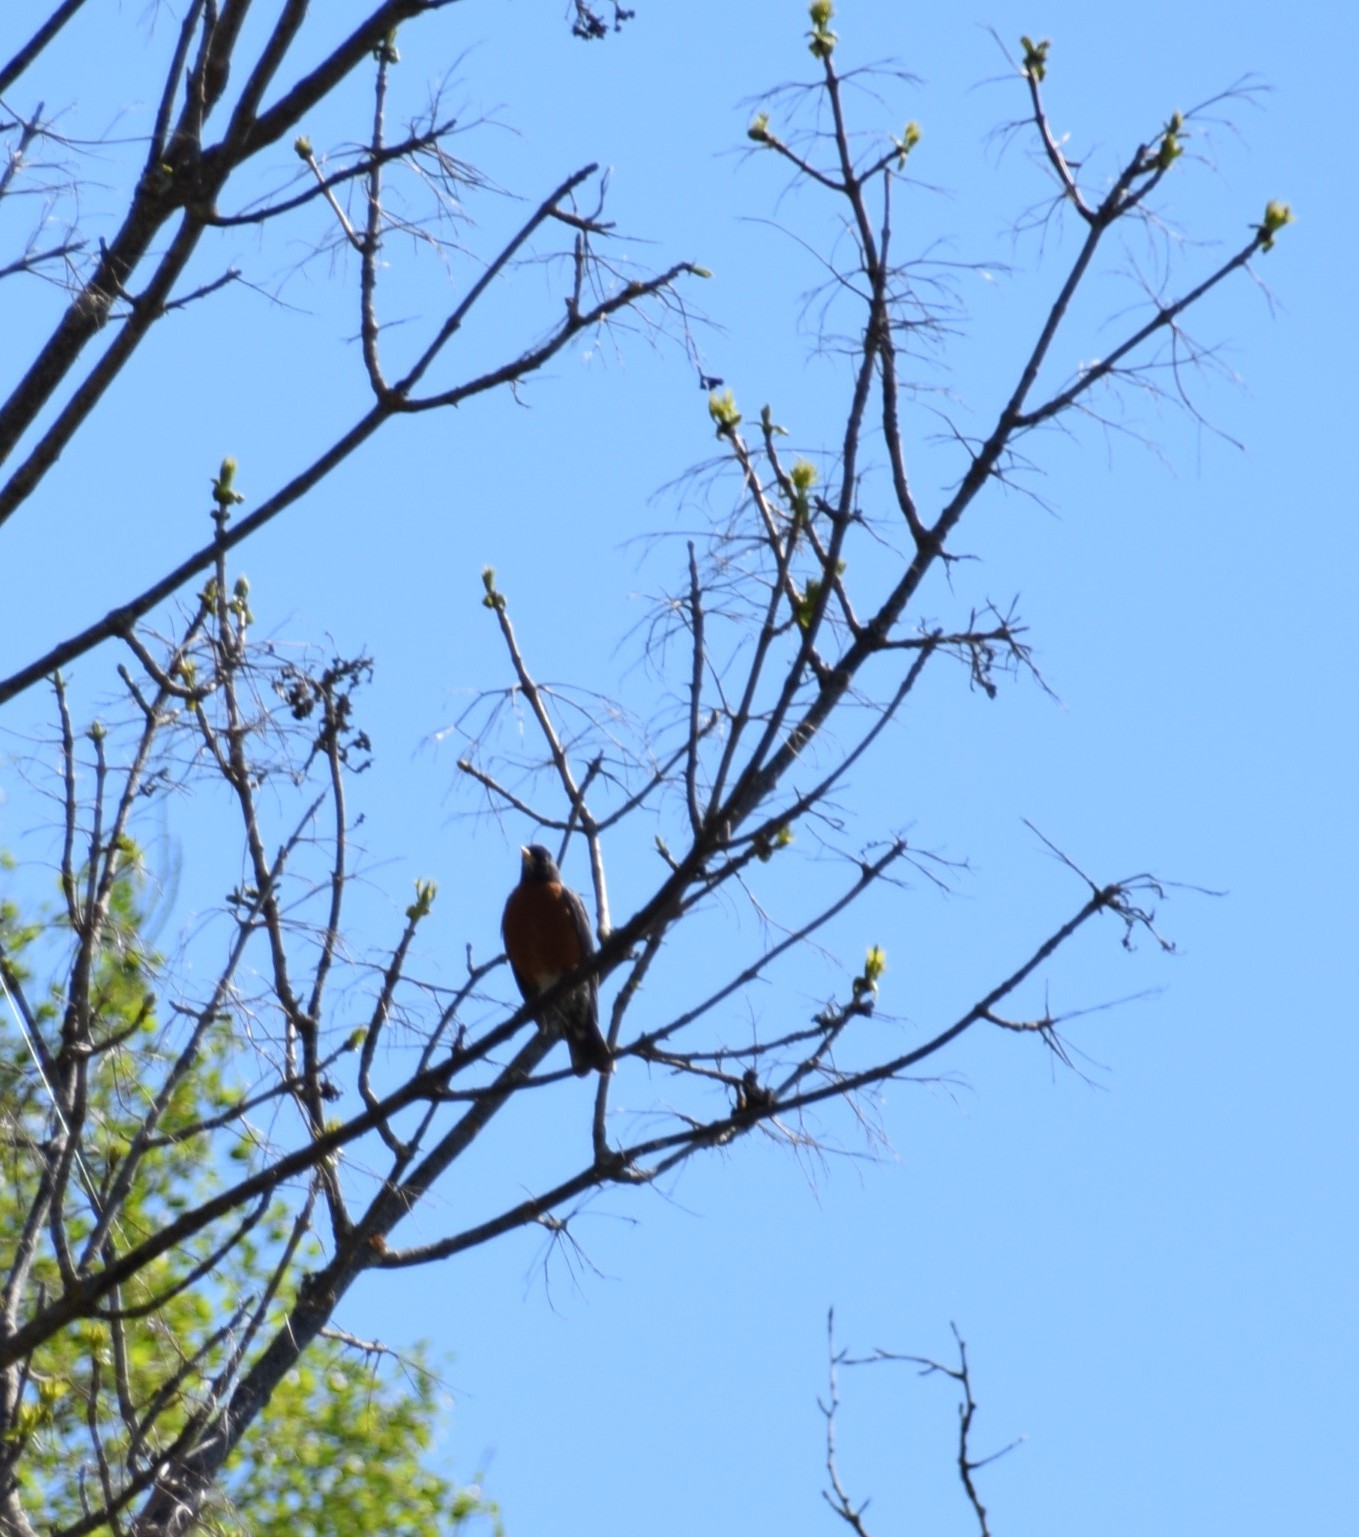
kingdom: Animalia
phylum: Chordata
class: Aves
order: Passeriformes
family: Turdidae
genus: Turdus
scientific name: Turdus migratorius
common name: American robin
